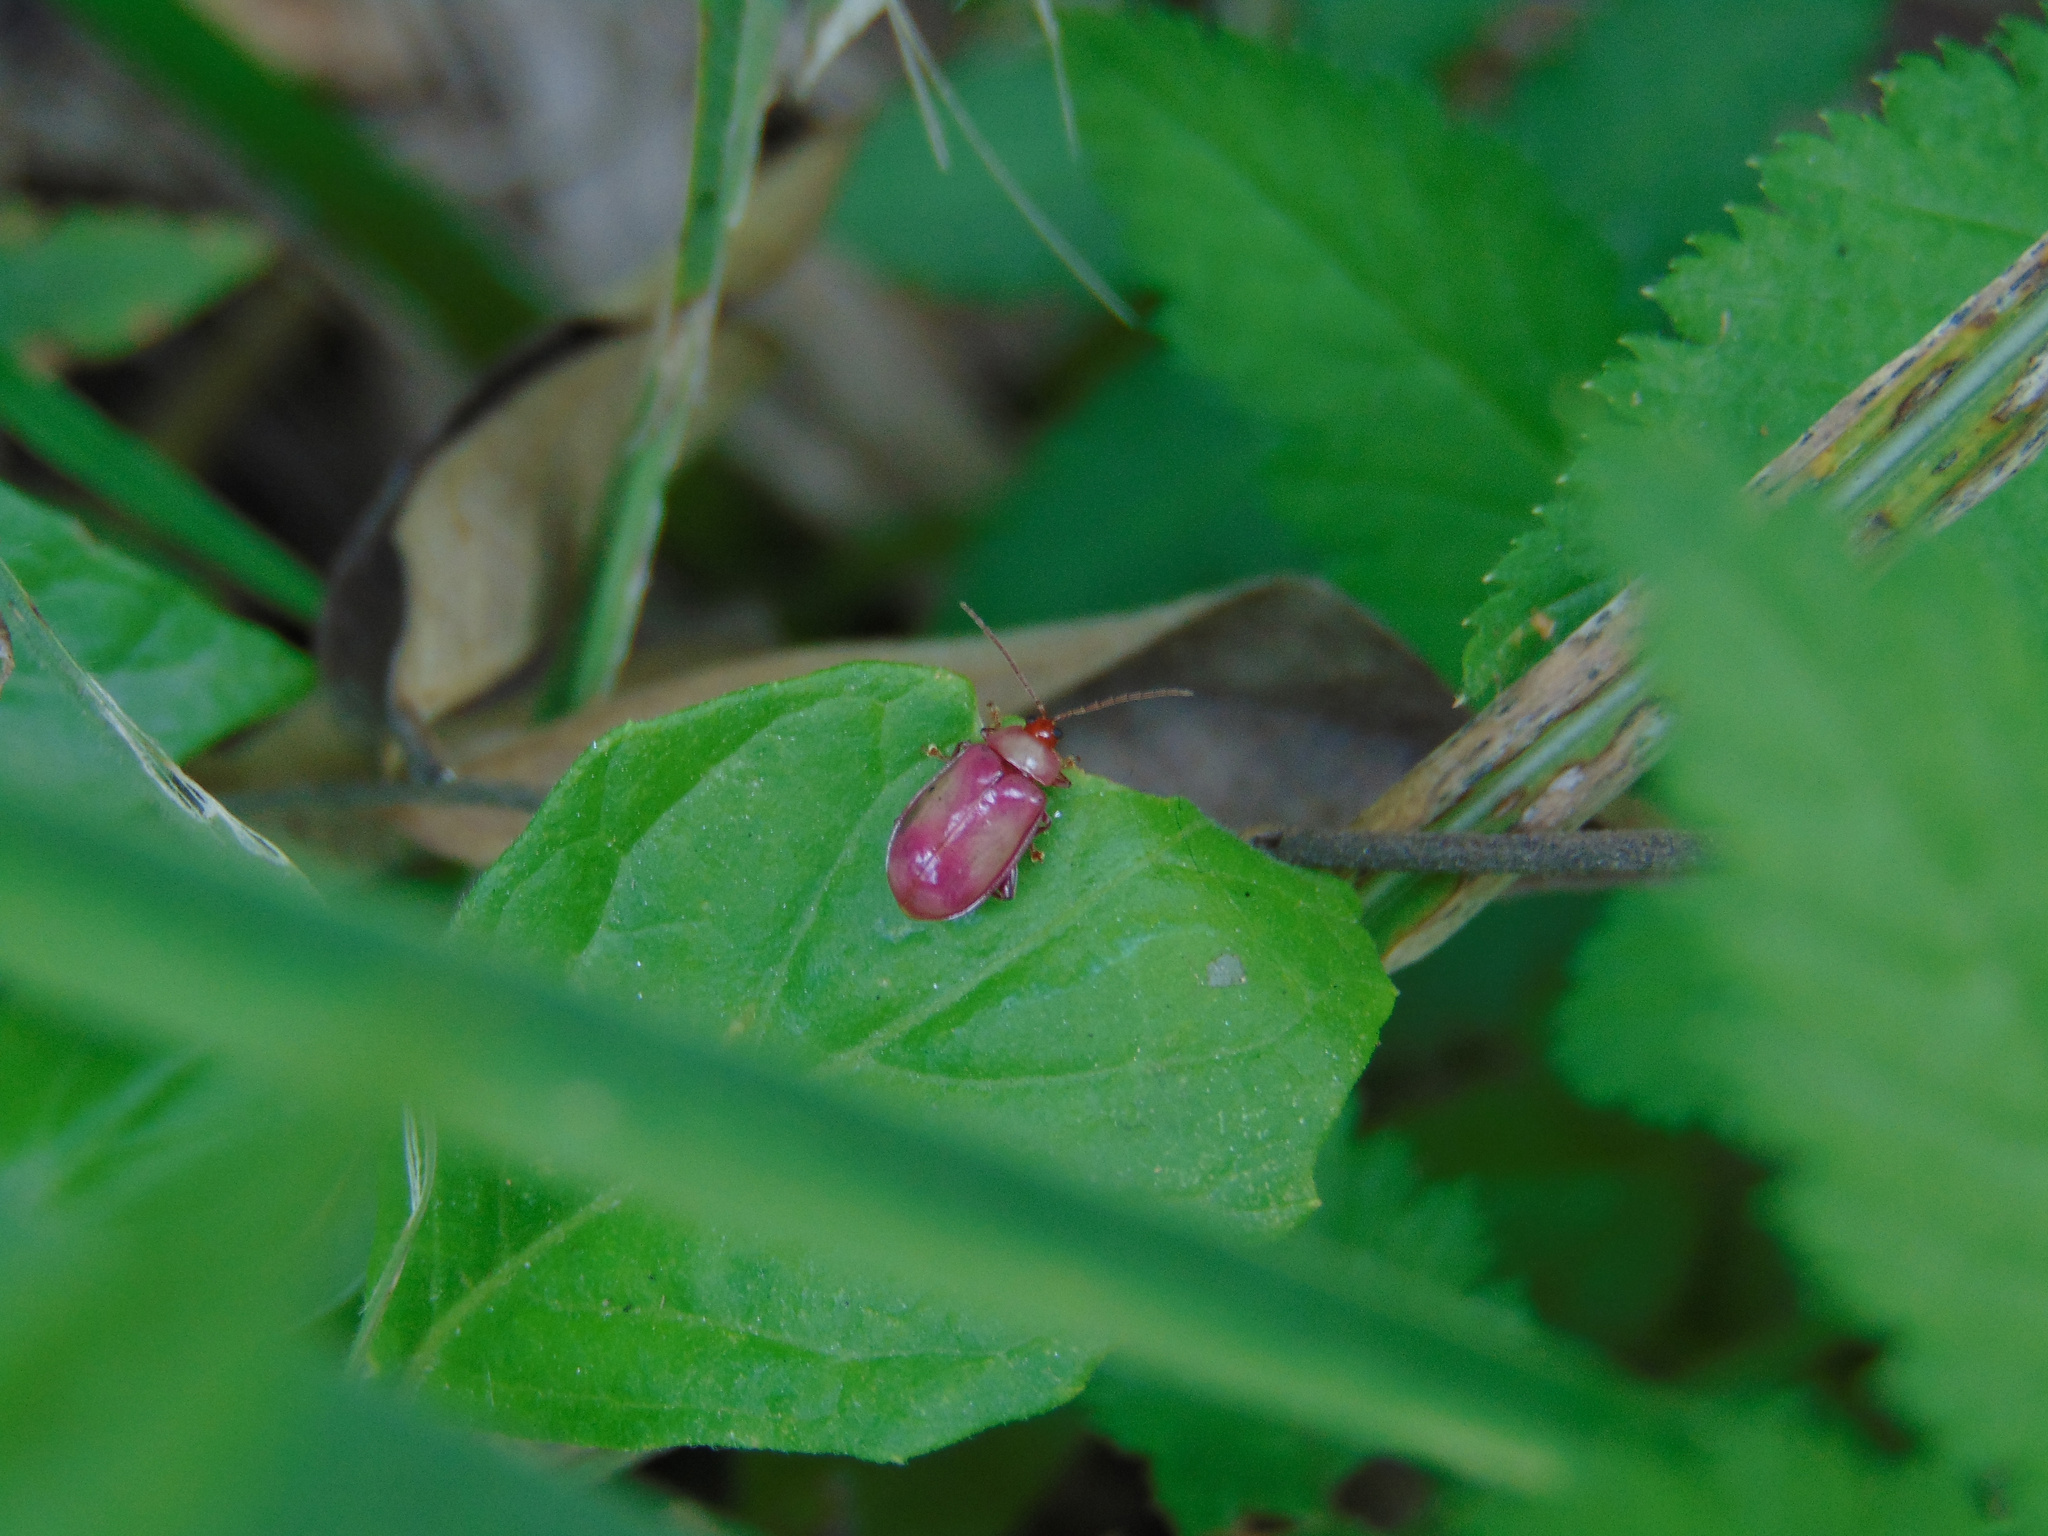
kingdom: Animalia
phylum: Arthropoda
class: Insecta
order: Coleoptera
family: Chrysomelidae
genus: Asphaera
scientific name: Asphaera
